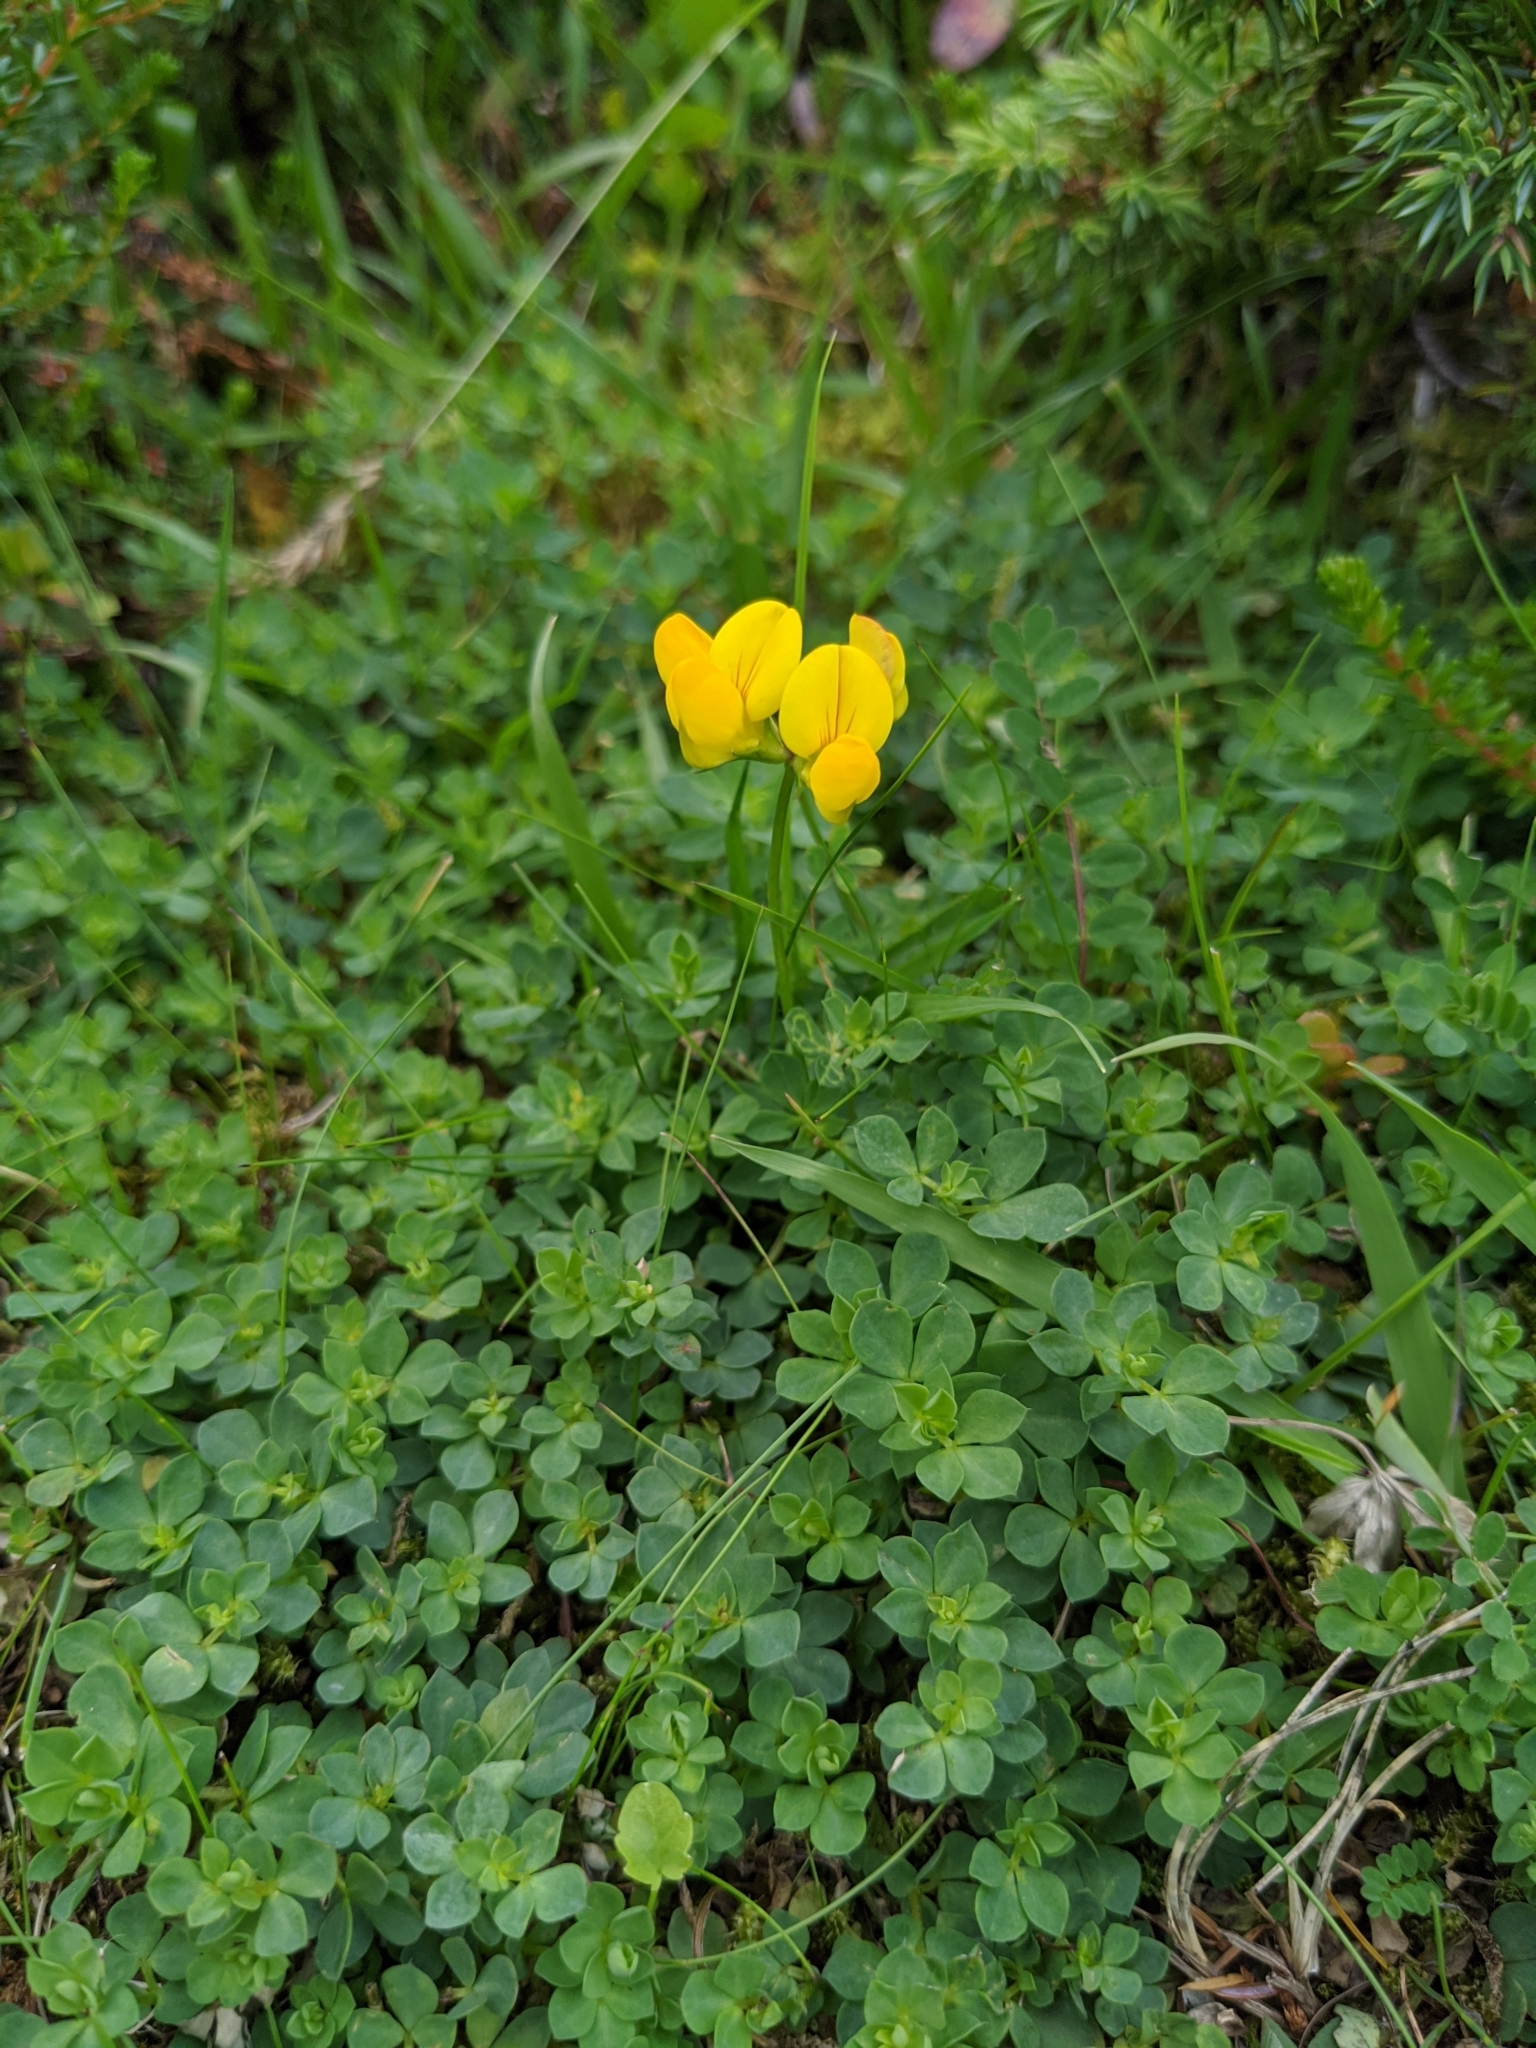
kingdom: Plantae
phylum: Tracheophyta
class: Magnoliopsida
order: Fabales
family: Fabaceae
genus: Lotus
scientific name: Lotus corniculatus
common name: Common bird's-foot-trefoil
